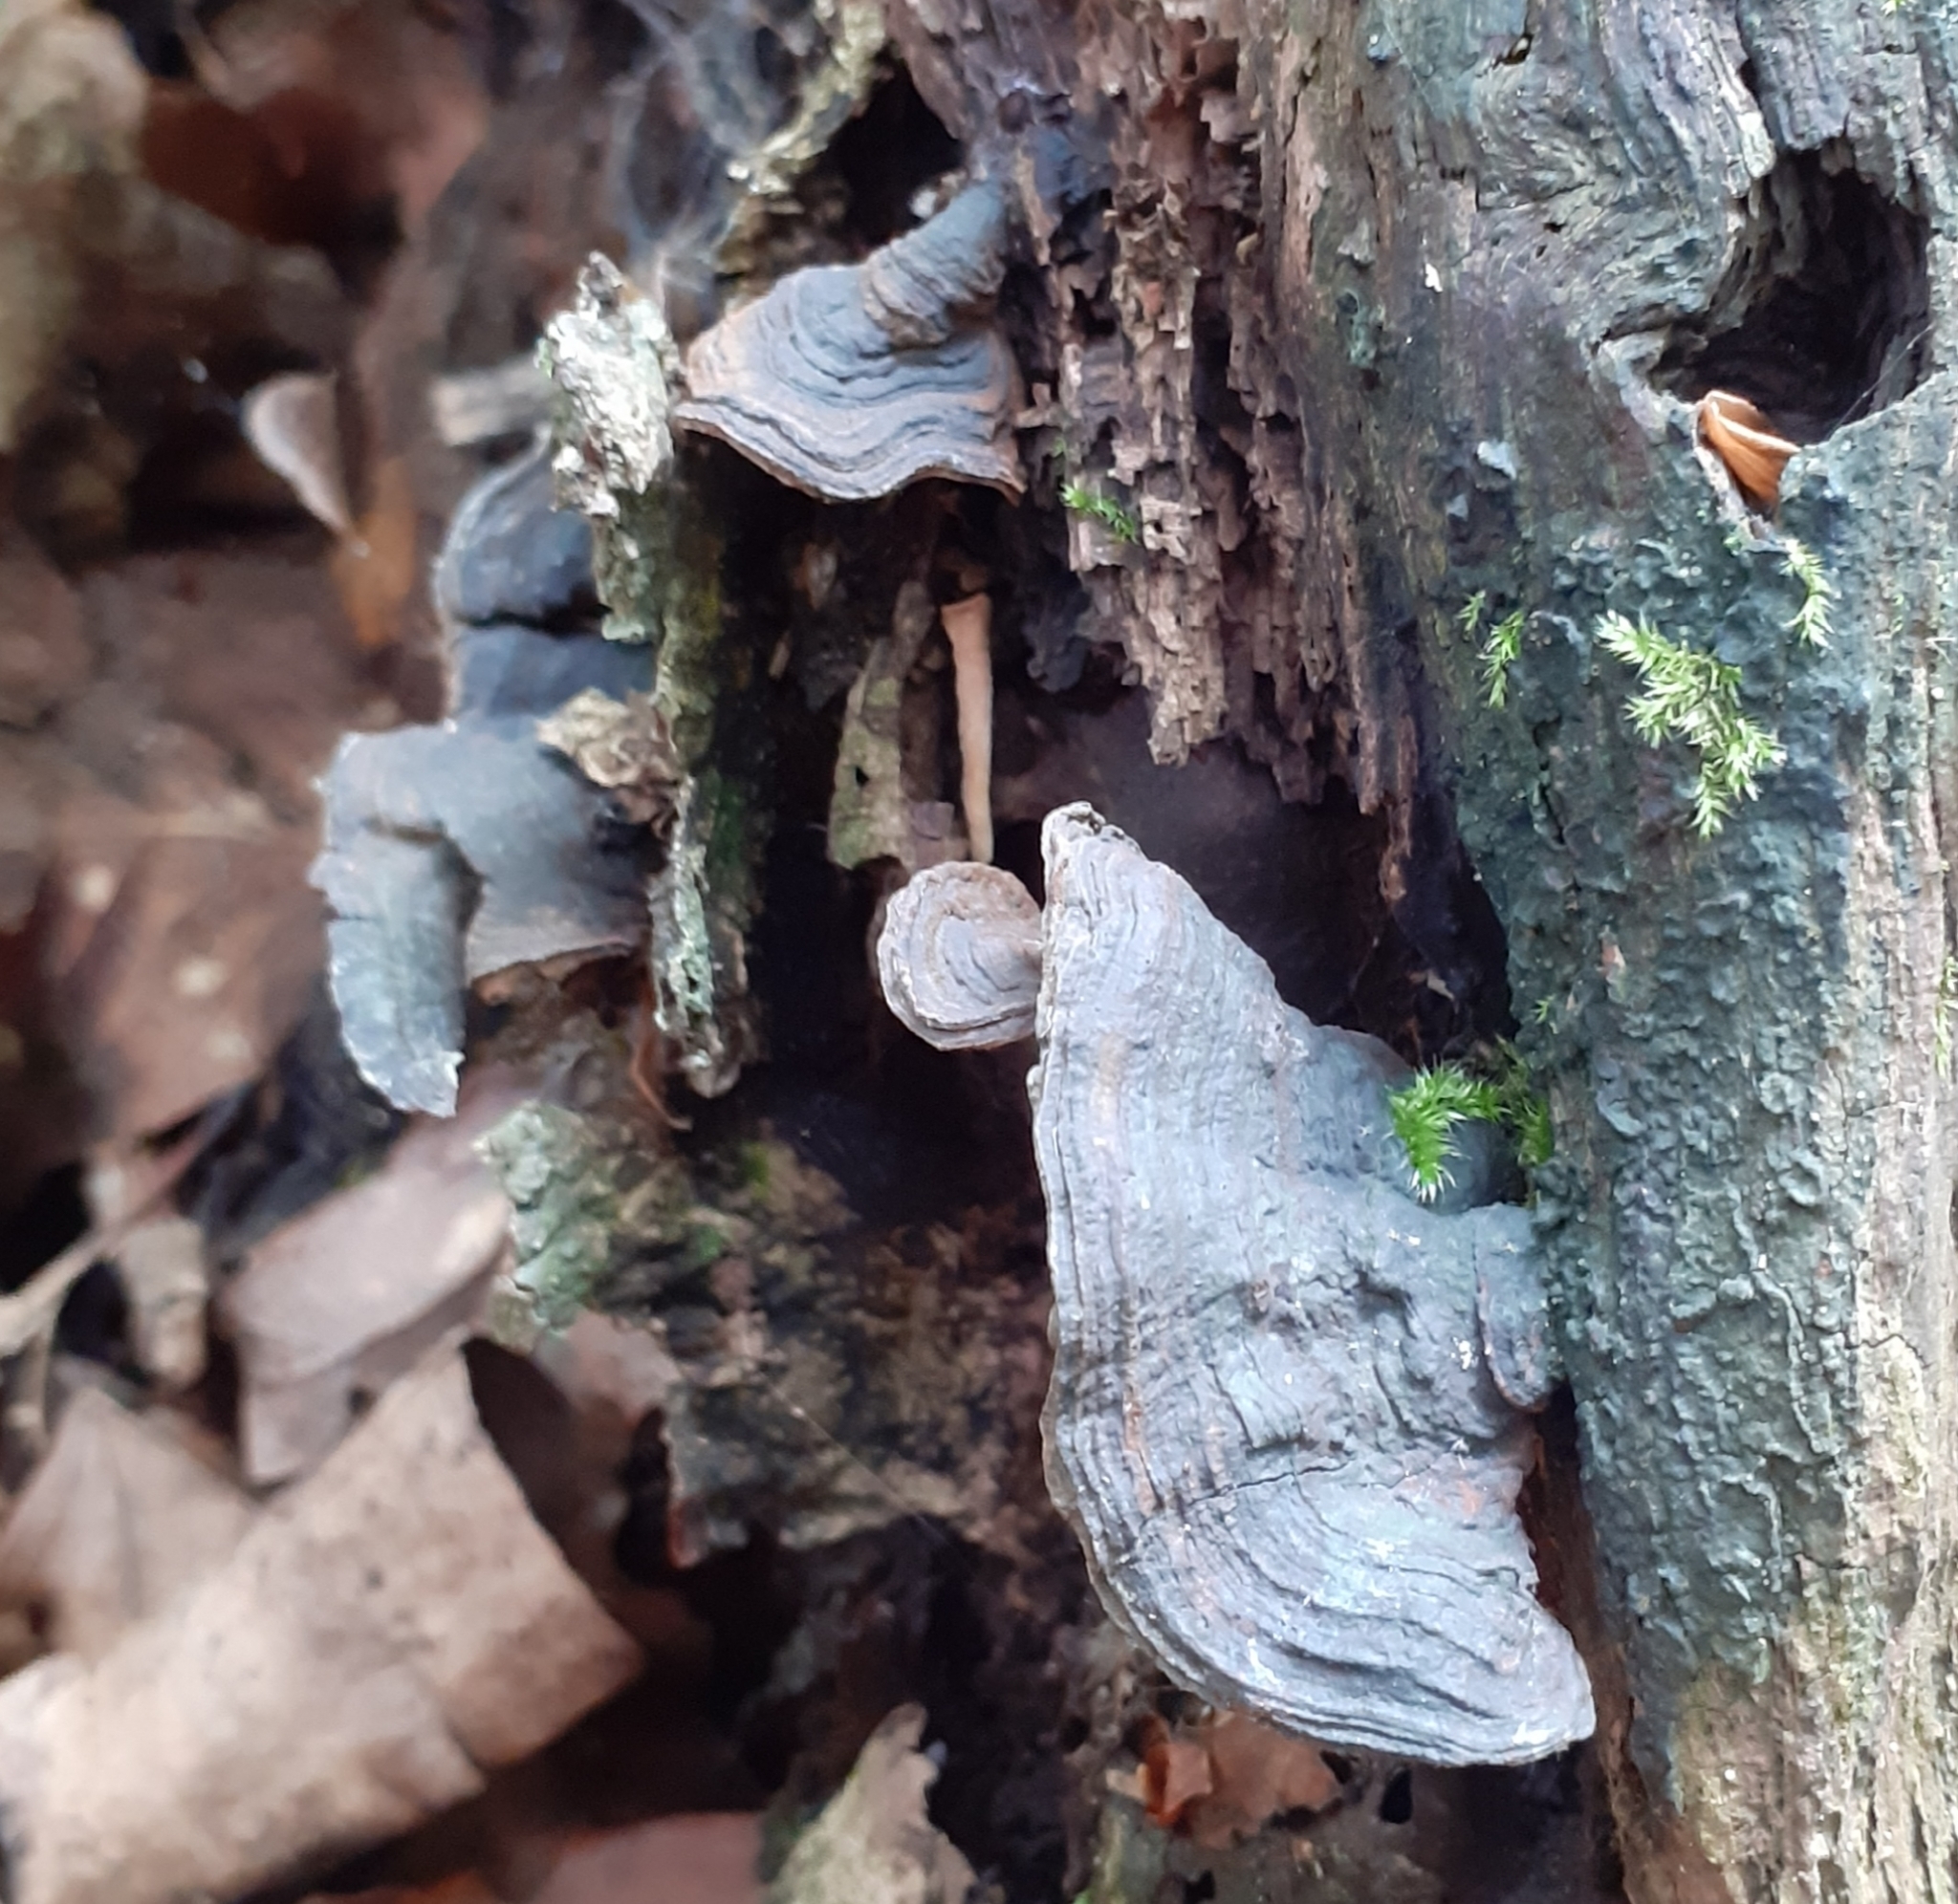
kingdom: Fungi
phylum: Basidiomycota
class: Agaricomycetes
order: Hymenochaetales
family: Hymenochaetaceae
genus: Hymenochaete
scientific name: Hymenochaete rubiginosa
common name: Oak curtain crust
